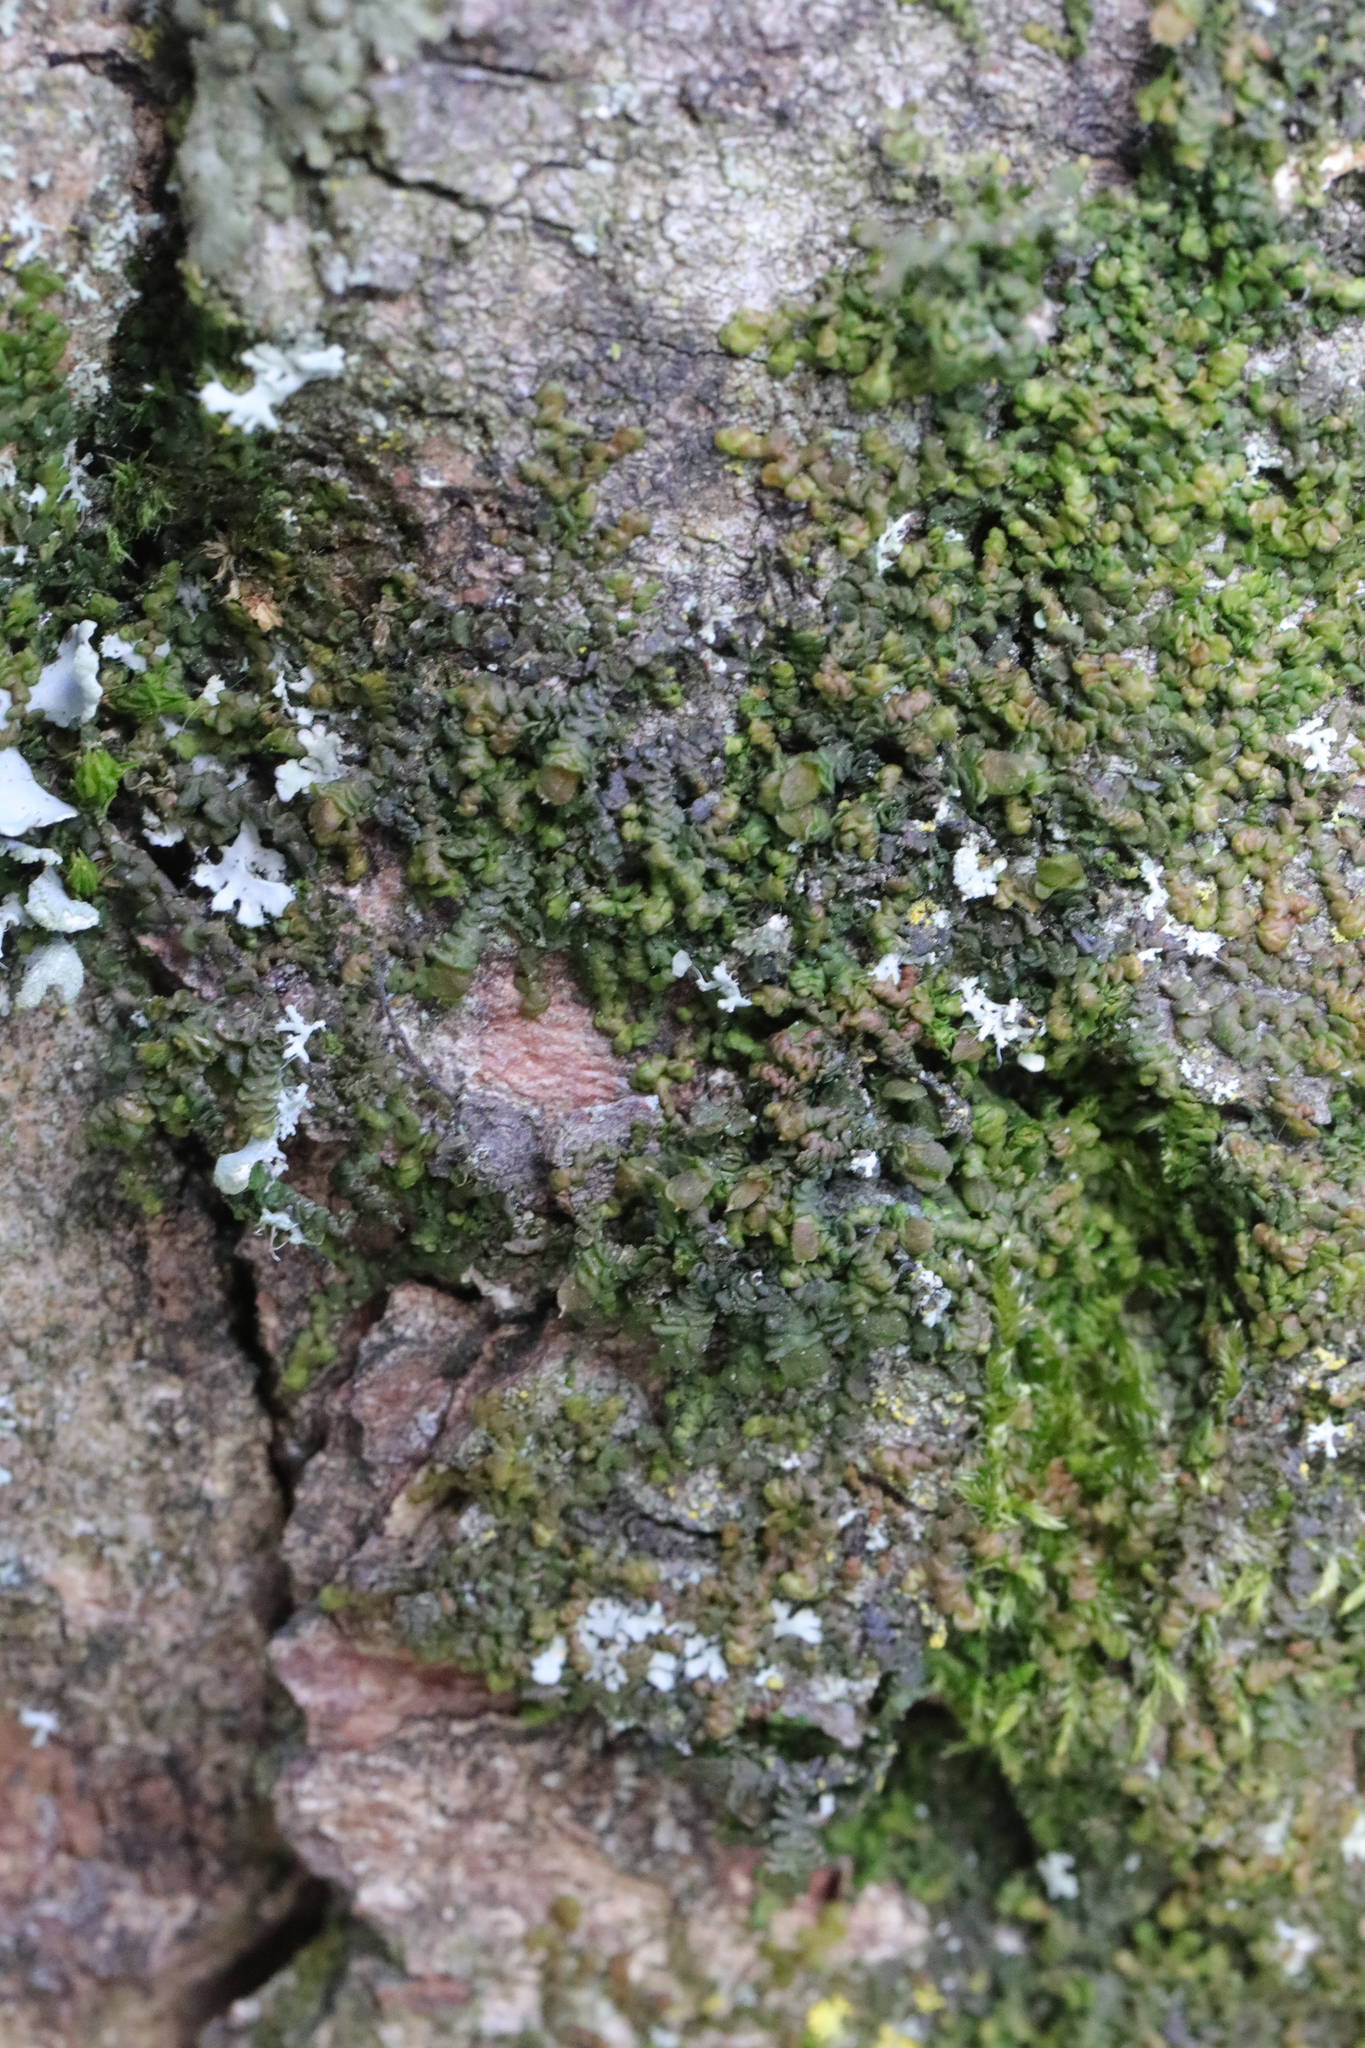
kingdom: Plantae
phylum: Marchantiophyta
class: Jungermanniopsida
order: Porellales
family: Frullaniaceae
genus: Frullania
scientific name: Frullania dilatata
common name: Dilated scalewort
